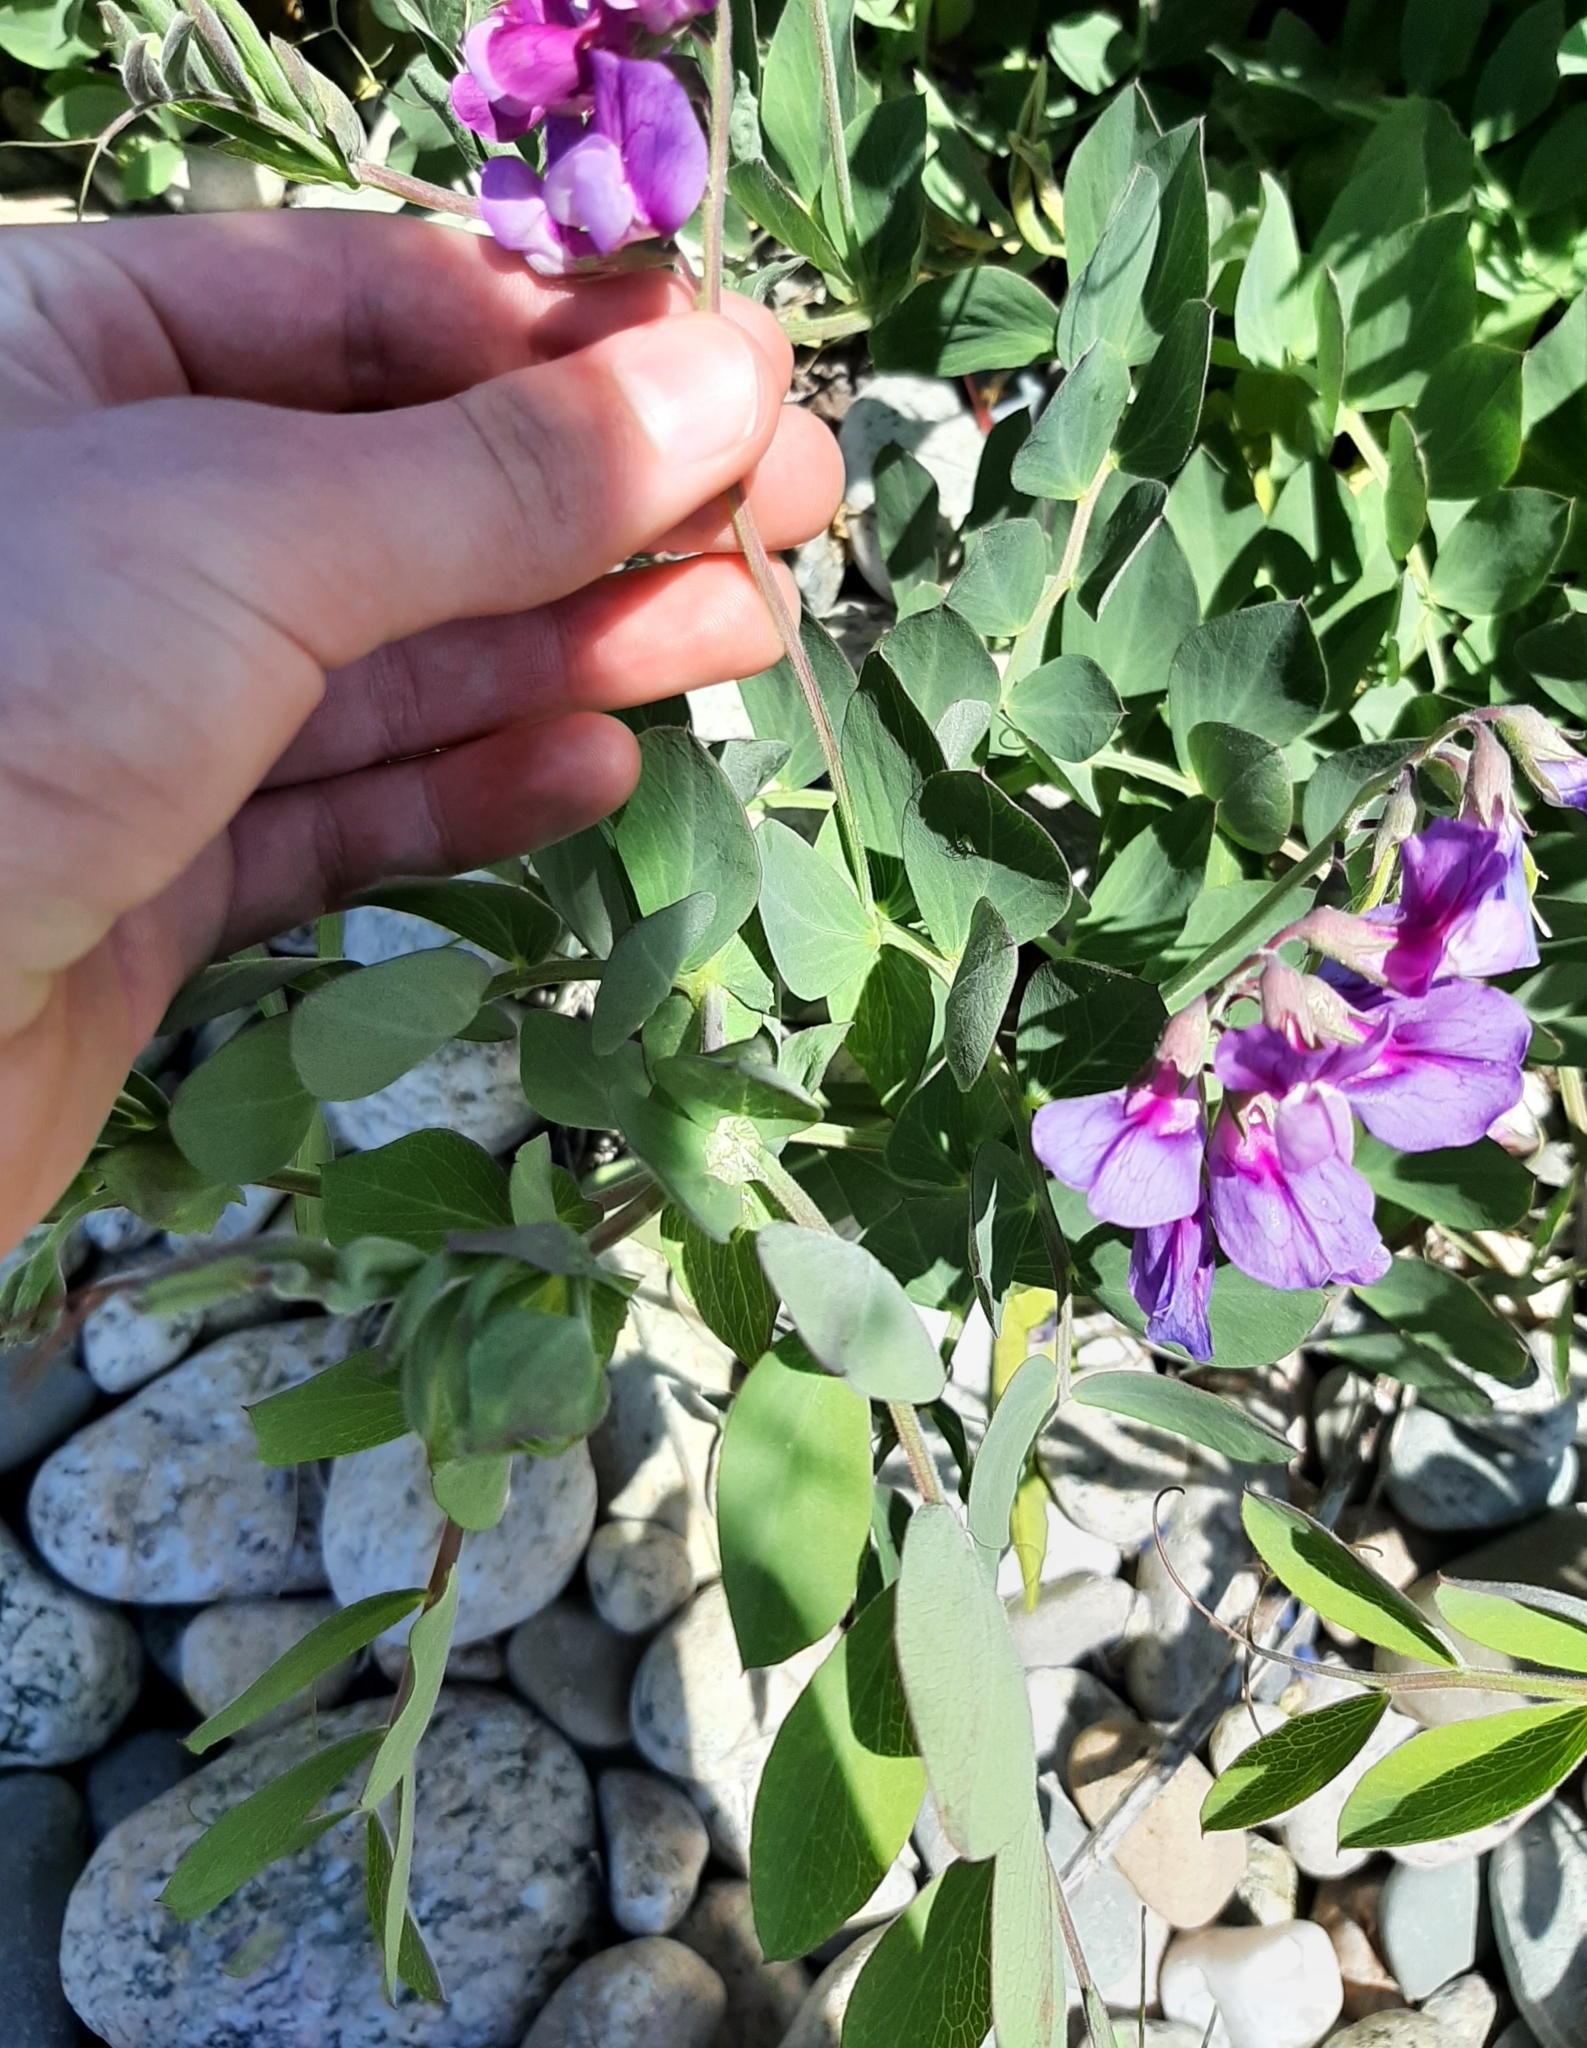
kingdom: Plantae
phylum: Tracheophyta
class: Magnoliopsida
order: Fabales
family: Fabaceae
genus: Lathyrus
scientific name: Lathyrus japonicus
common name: Sea pea
